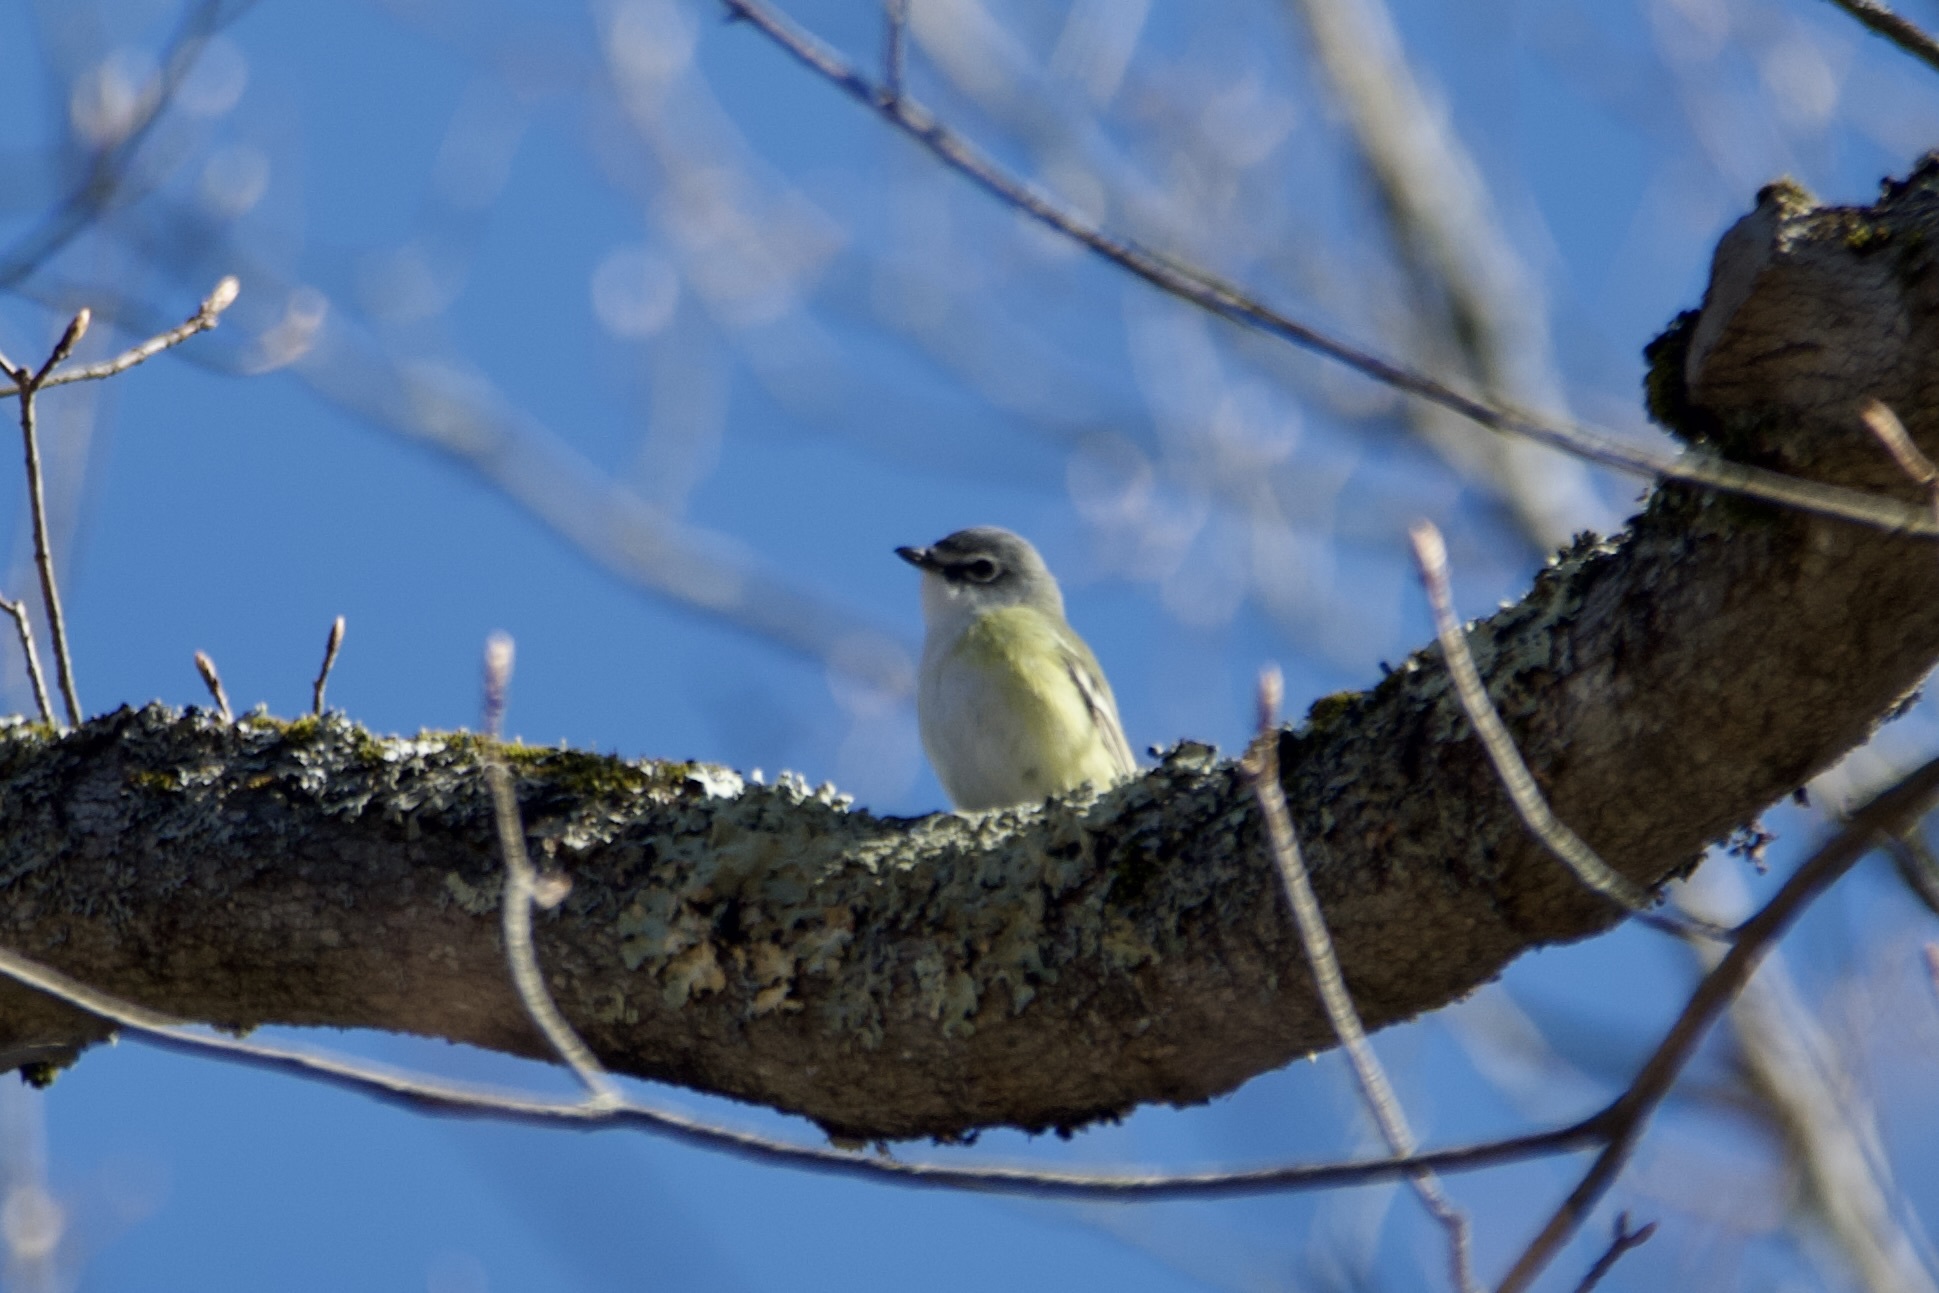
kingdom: Animalia
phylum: Chordata
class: Aves
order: Passeriformes
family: Vireonidae
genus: Vireo
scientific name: Vireo solitarius
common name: Blue-headed vireo
